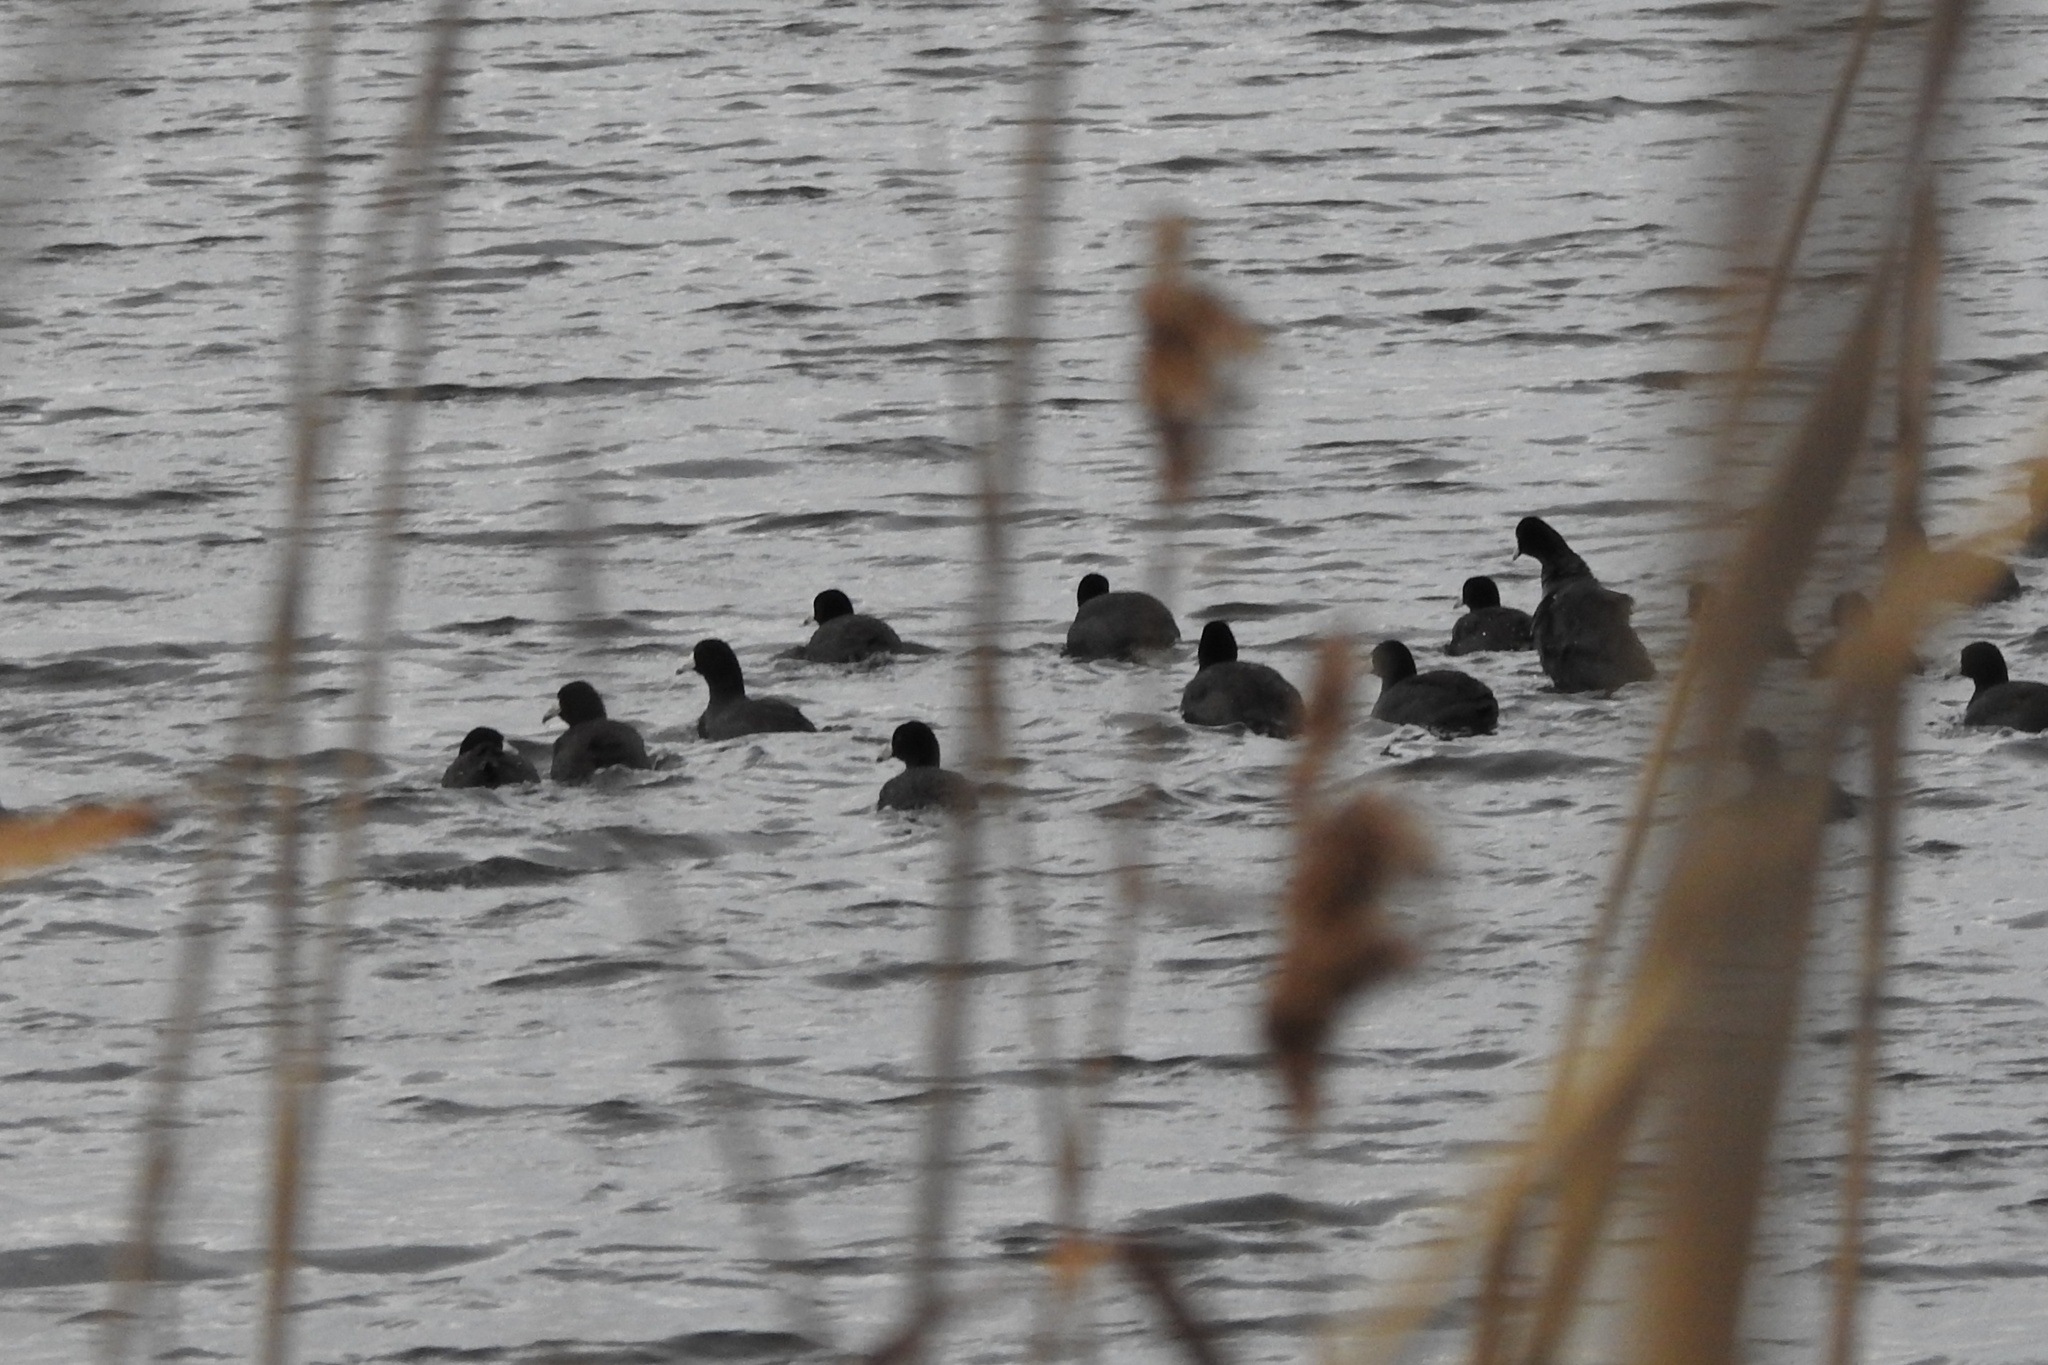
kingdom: Animalia
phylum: Chordata
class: Aves
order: Gruiformes
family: Rallidae
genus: Fulica
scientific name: Fulica americana
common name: American coot
